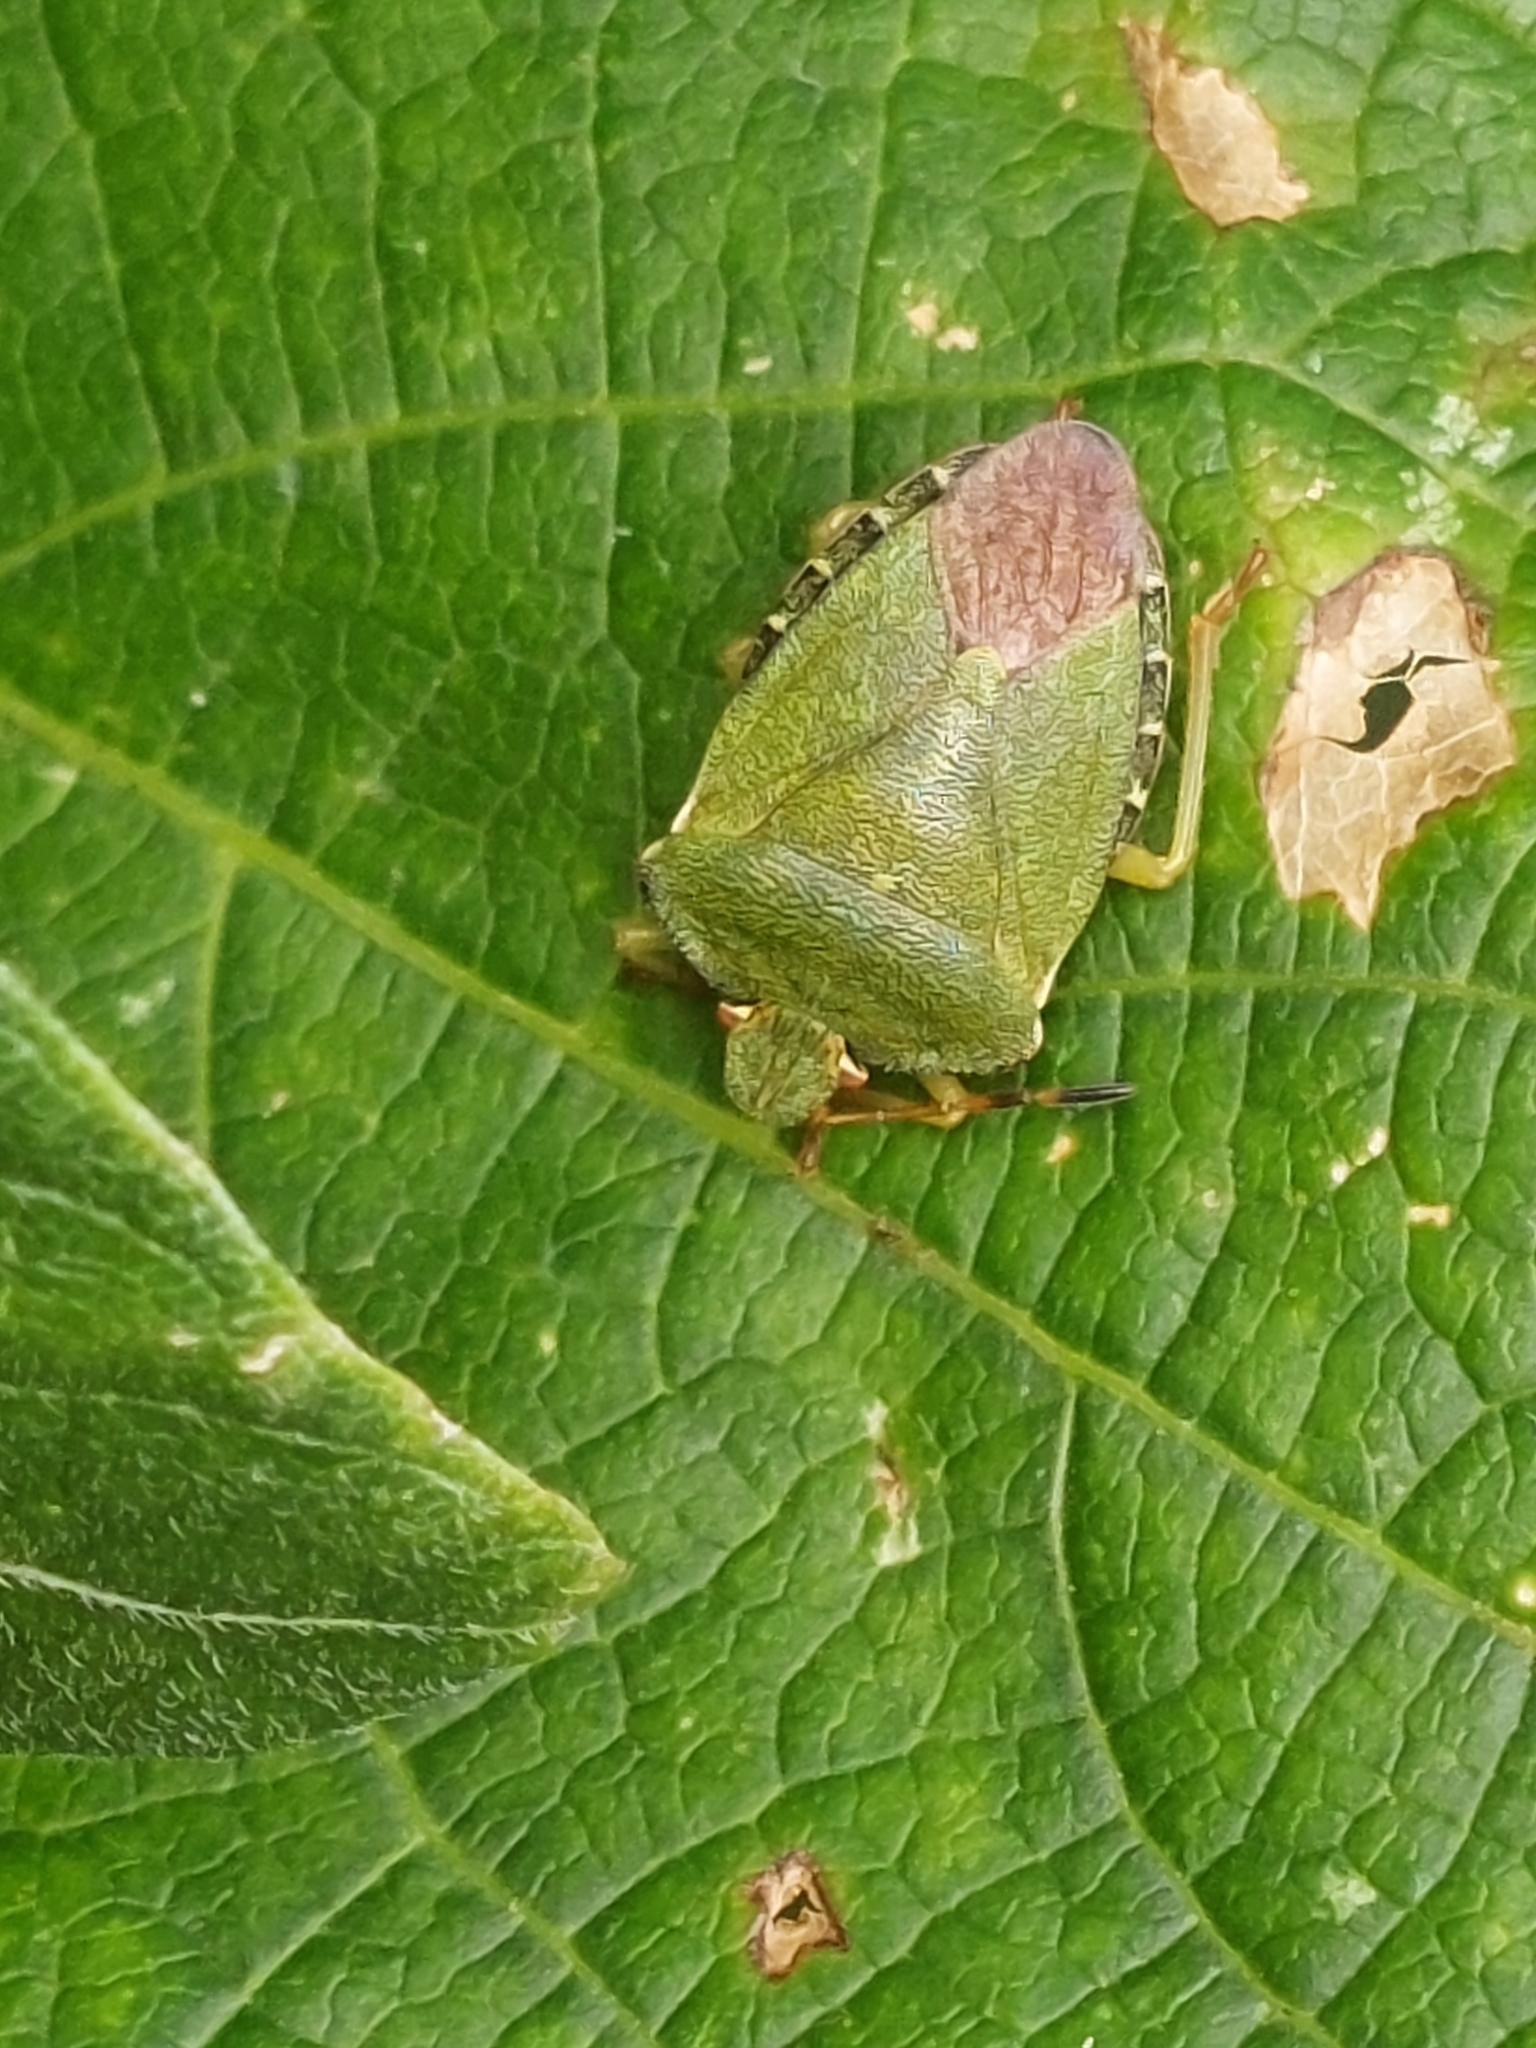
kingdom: Animalia
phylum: Arthropoda
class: Insecta
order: Hemiptera
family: Pentatomidae
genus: Palomena
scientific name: Palomena prasina
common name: Green shieldbug
